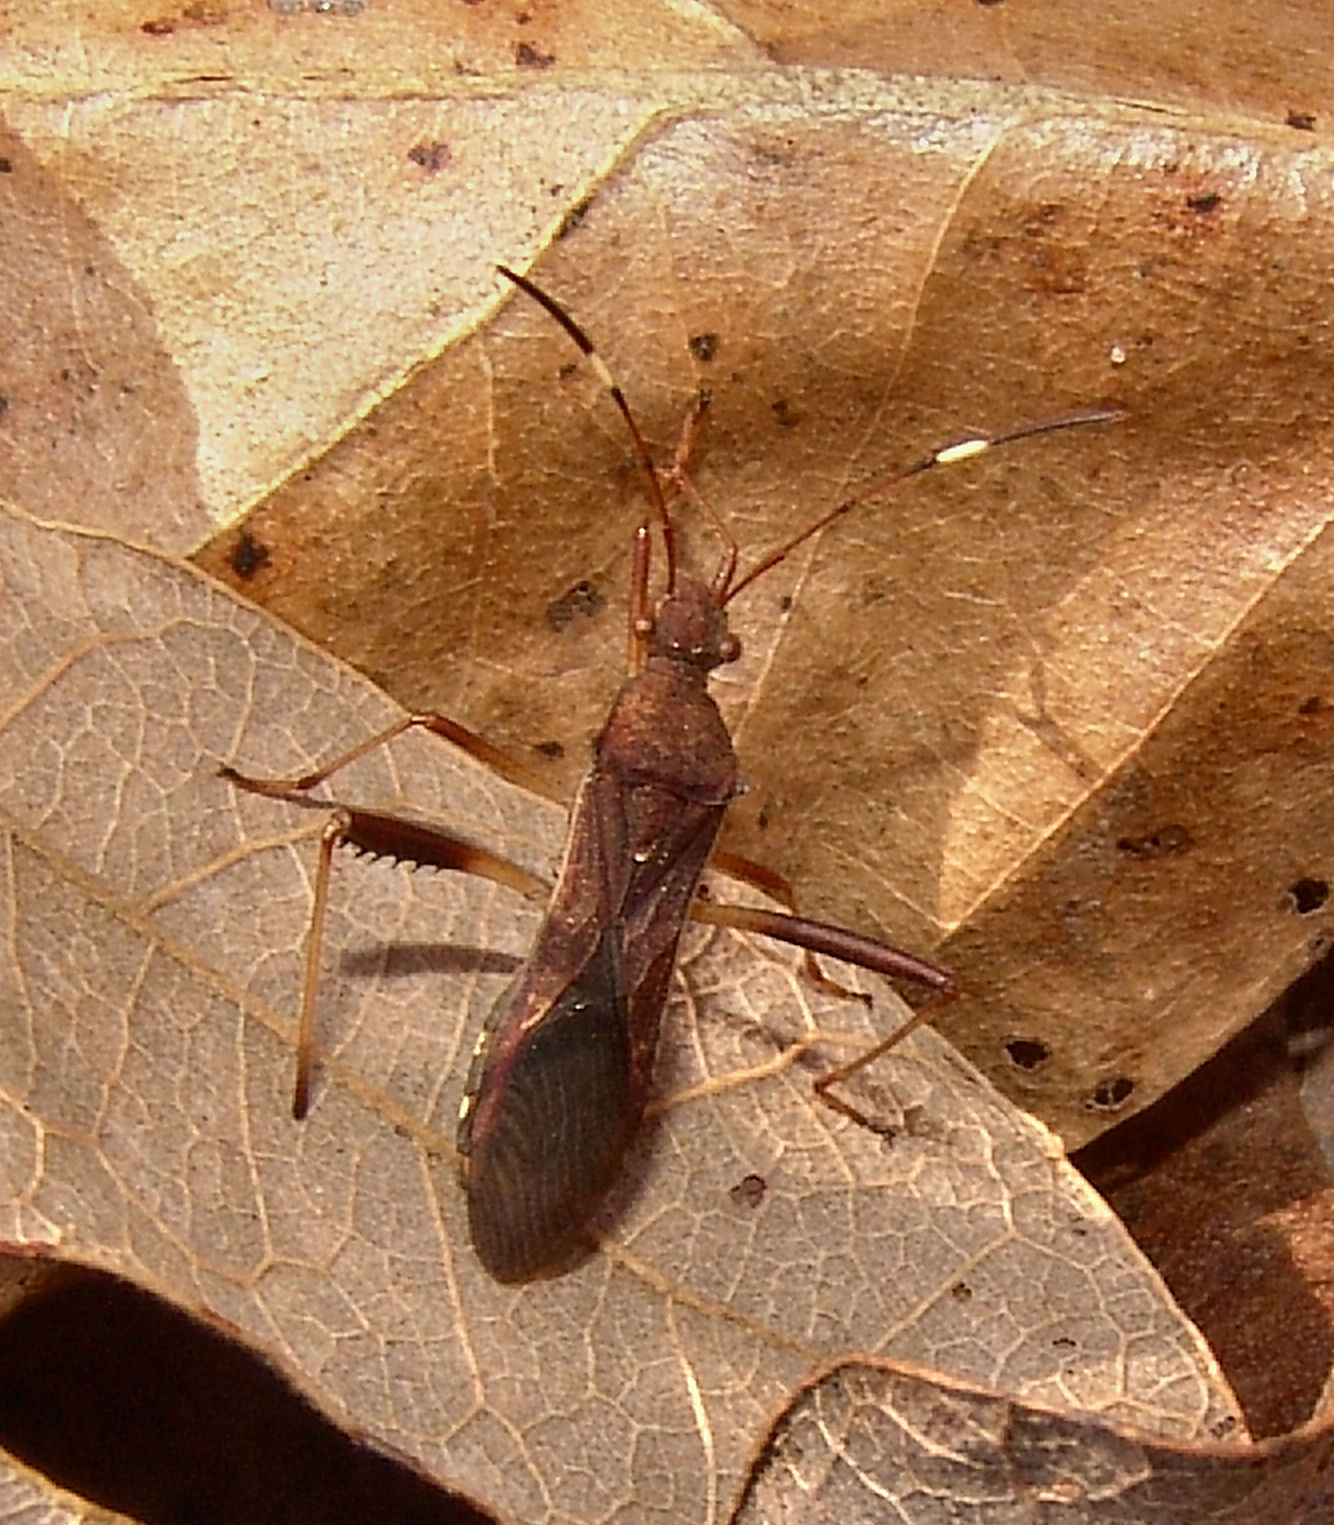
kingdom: Animalia
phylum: Arthropoda
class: Insecta
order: Hemiptera
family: Alydidae
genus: Megalotomus
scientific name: Megalotomus quinquespinosus
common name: Lupine bug
